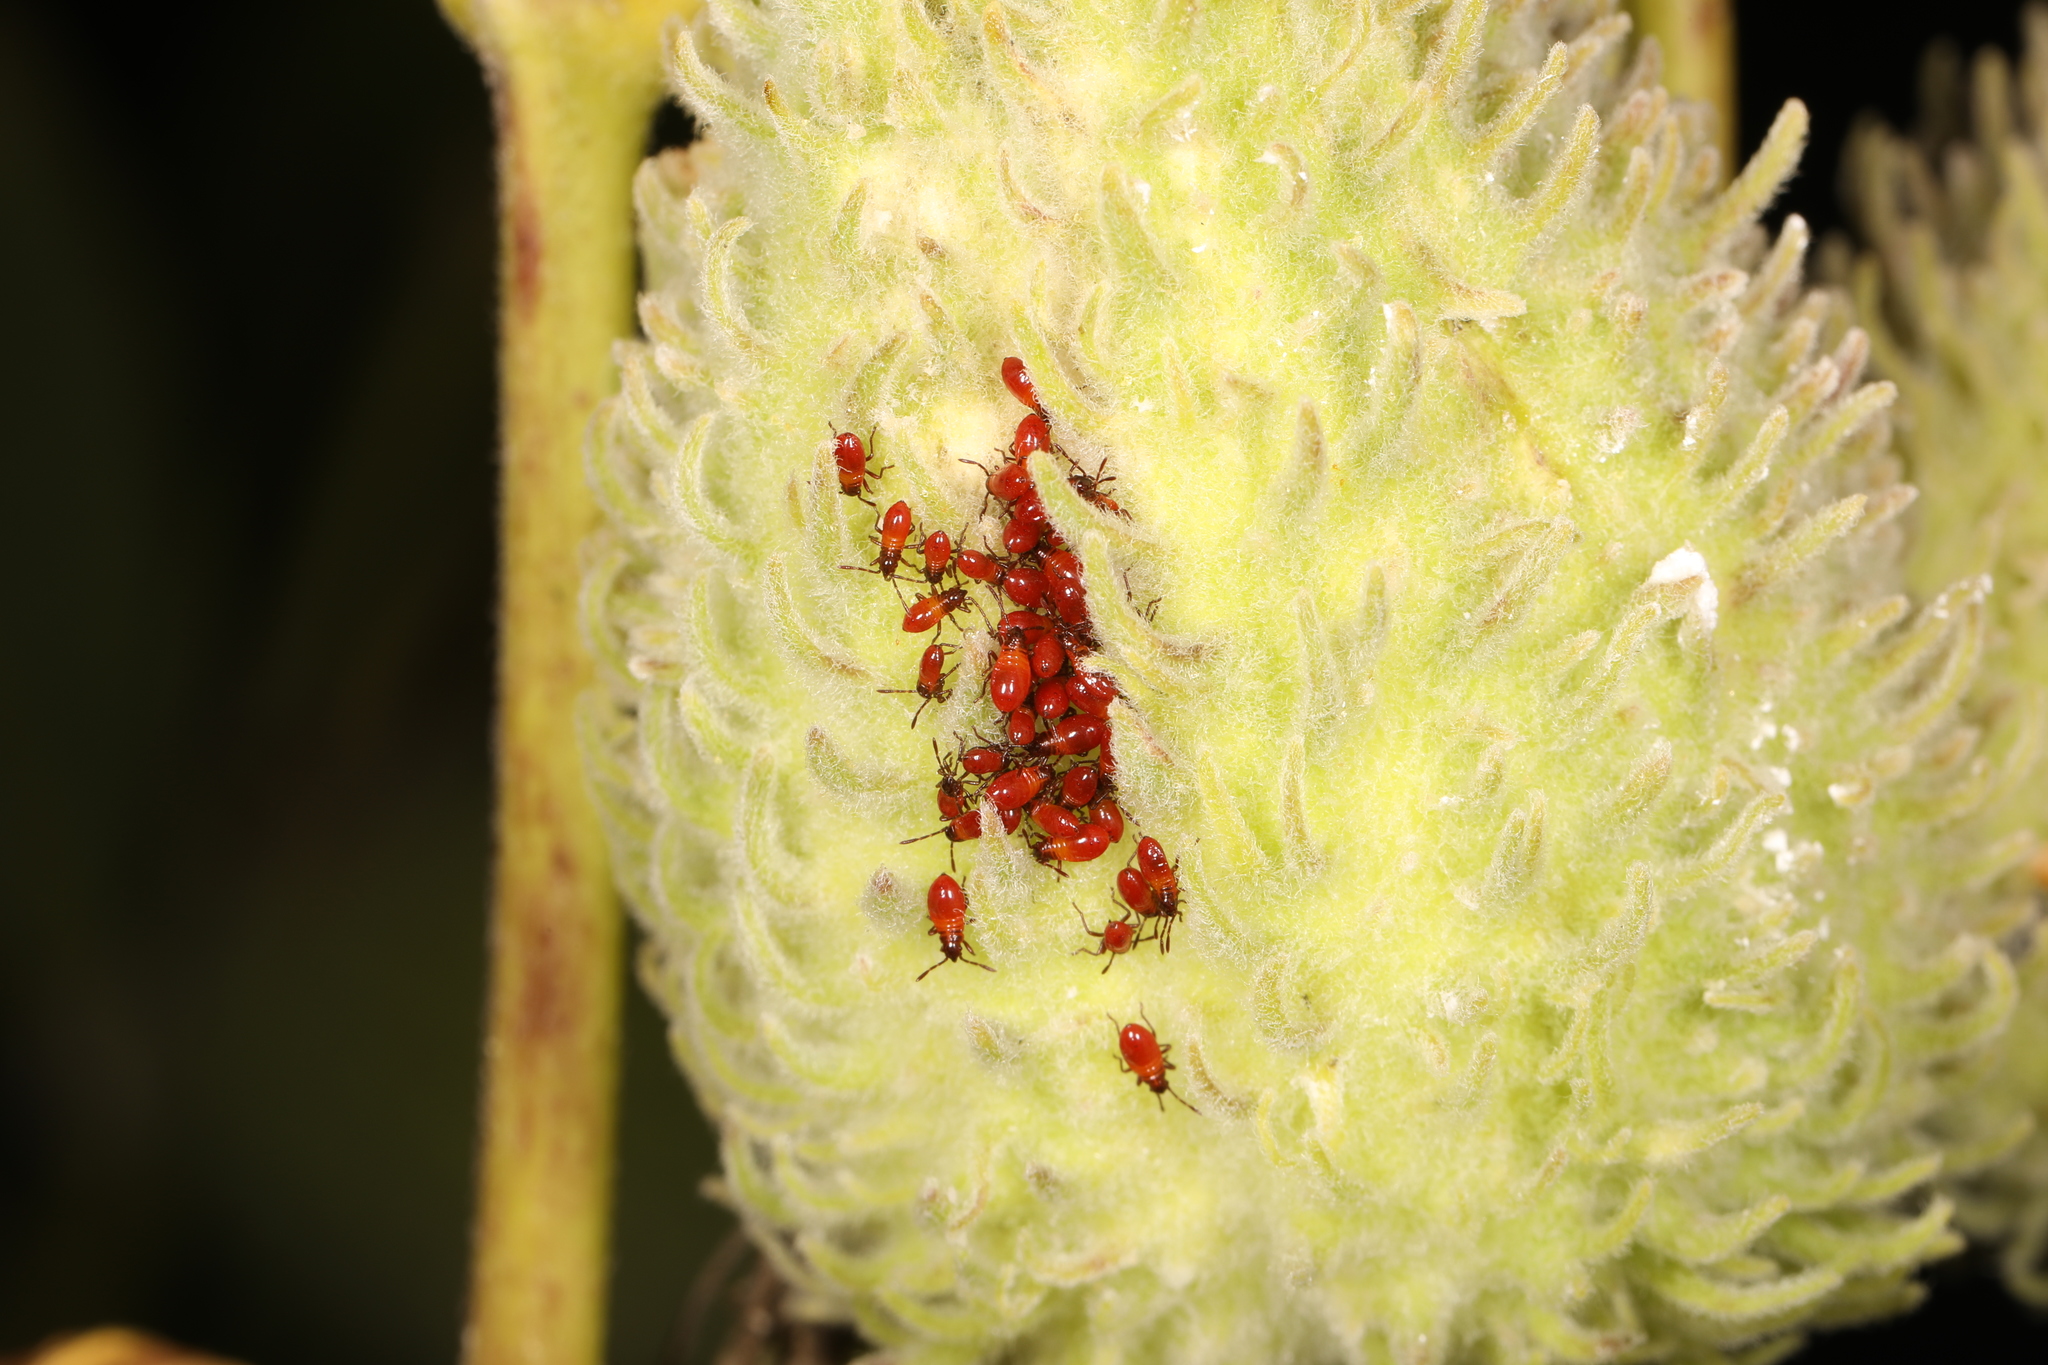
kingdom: Animalia
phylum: Arthropoda
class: Insecta
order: Hemiptera
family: Lygaeidae
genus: Oncopeltus
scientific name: Oncopeltus fasciatus
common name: Large milkweed bug
